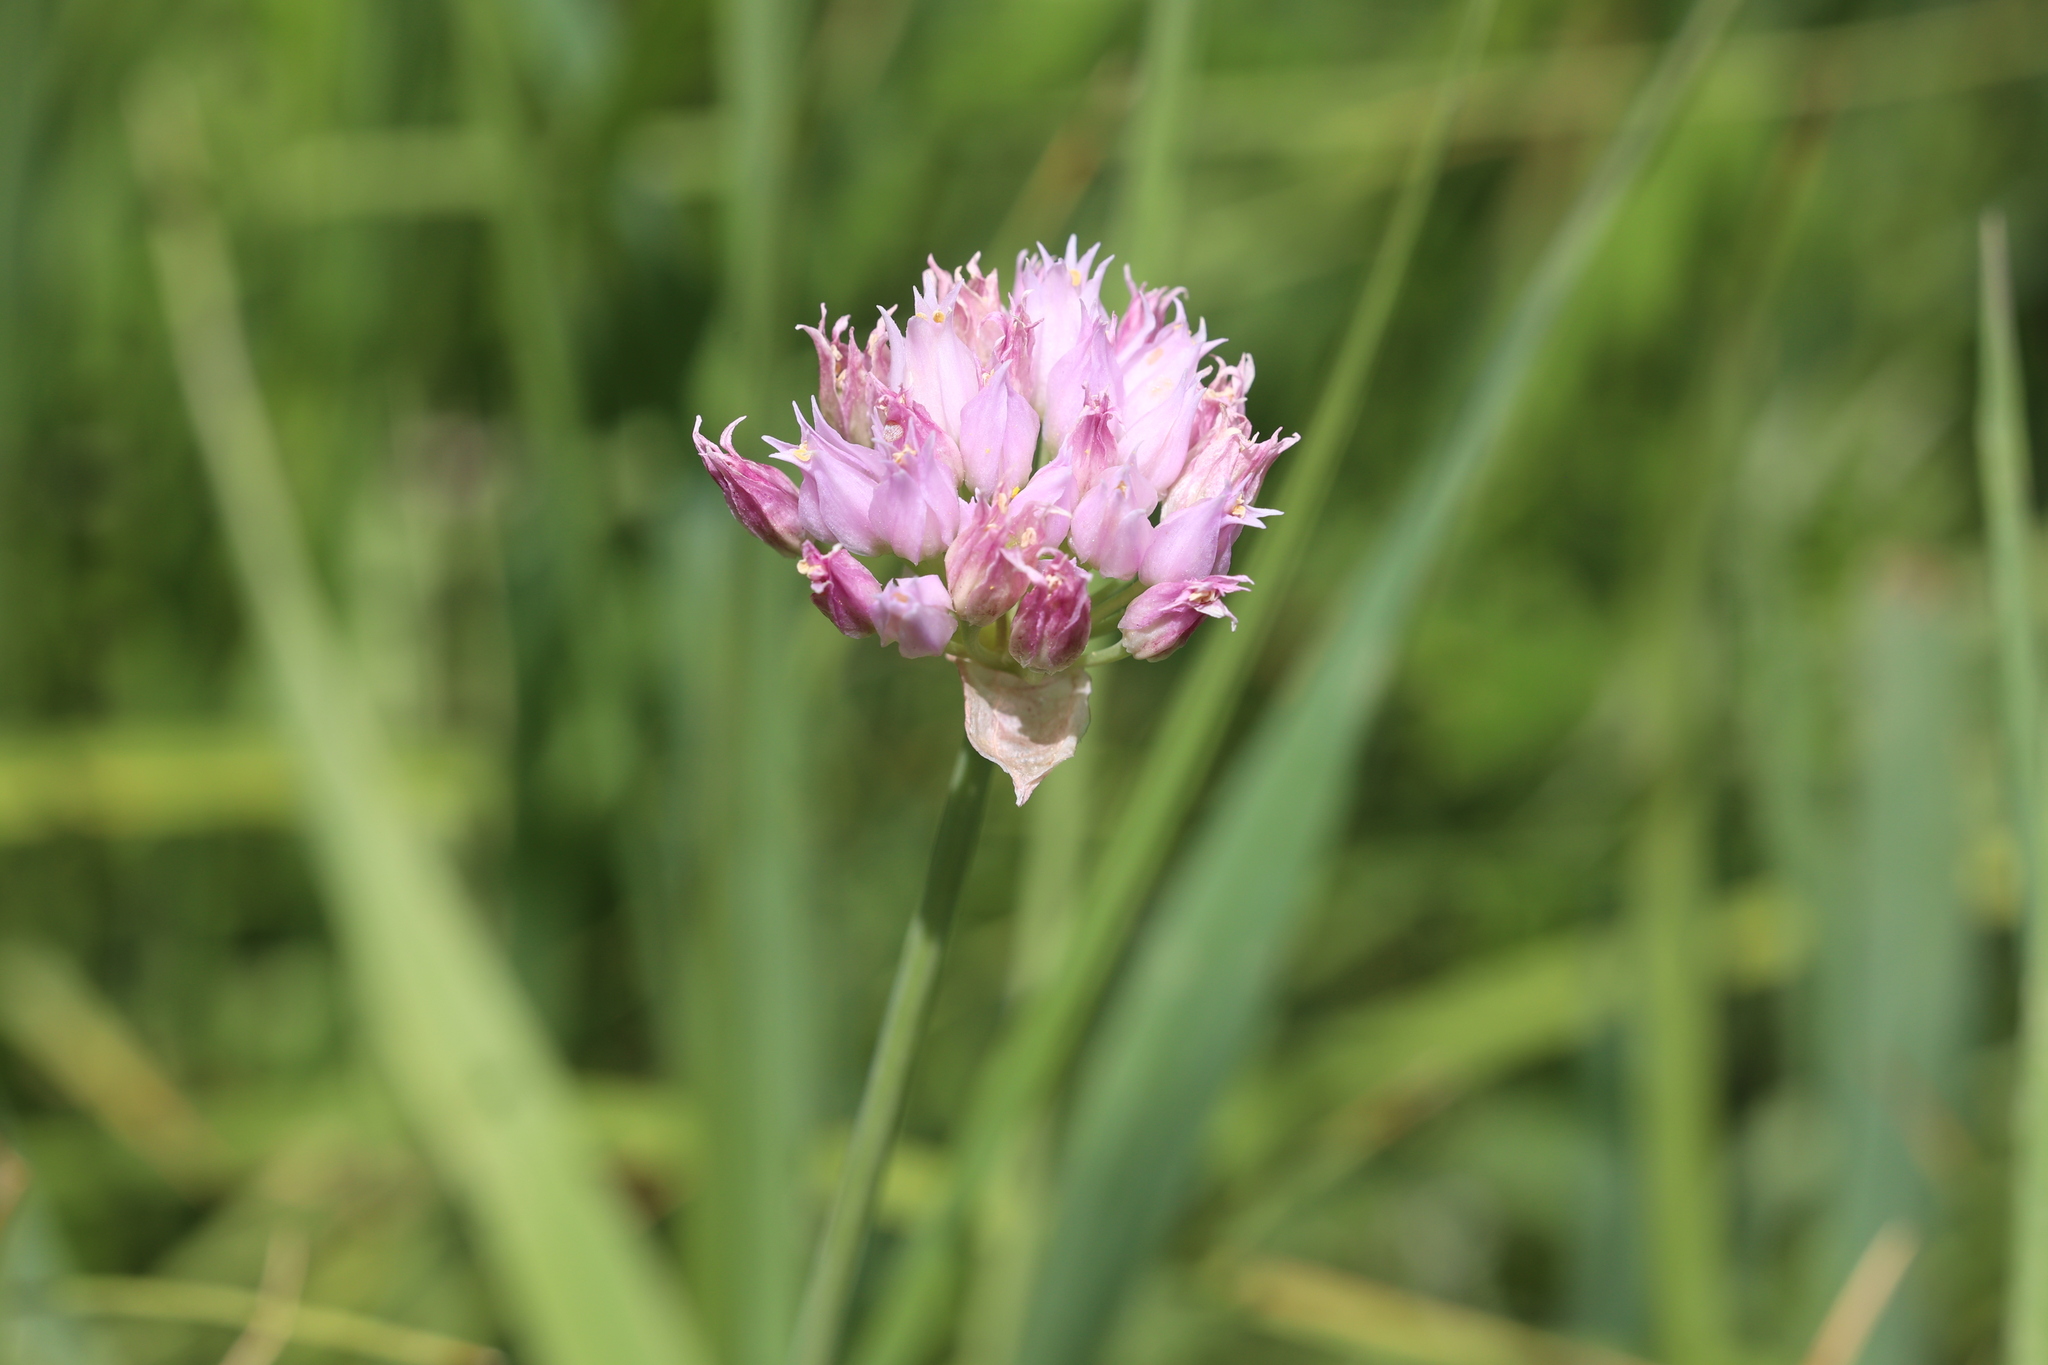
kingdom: Plantae
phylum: Tracheophyta
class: Liliopsida
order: Asparagales
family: Amaryllidaceae
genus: Allium
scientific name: Allium geyeri
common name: Geyer's onion
